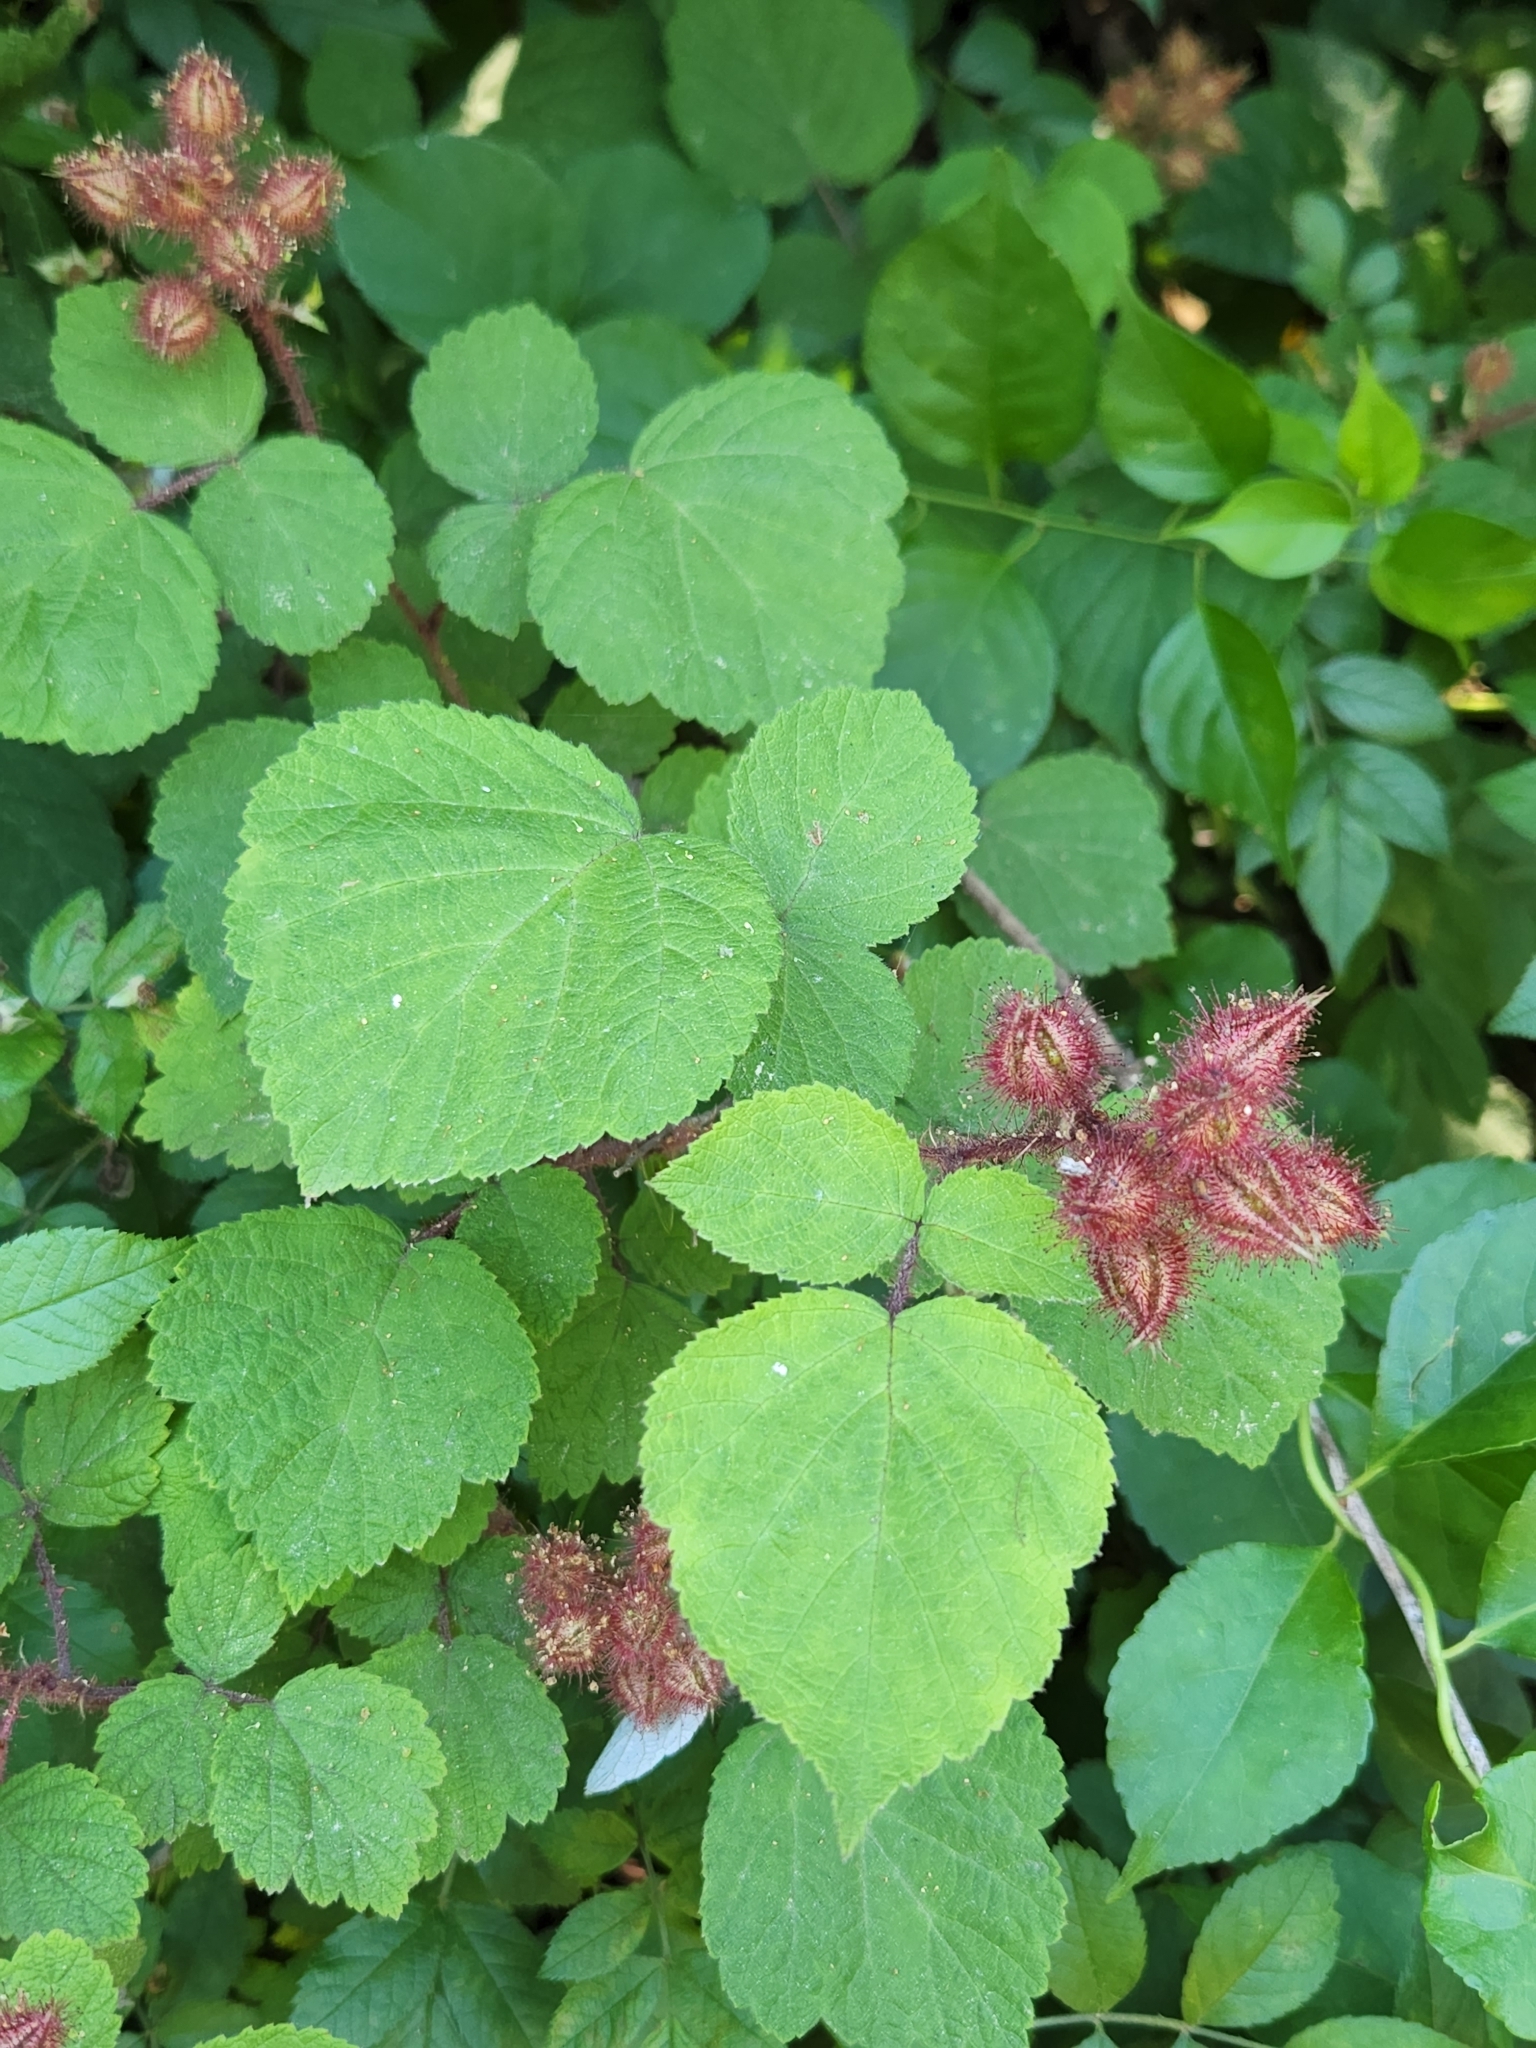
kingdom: Plantae
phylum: Tracheophyta
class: Magnoliopsida
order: Rosales
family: Rosaceae
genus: Rubus
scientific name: Rubus phoenicolasius
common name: Japanese wineberry
